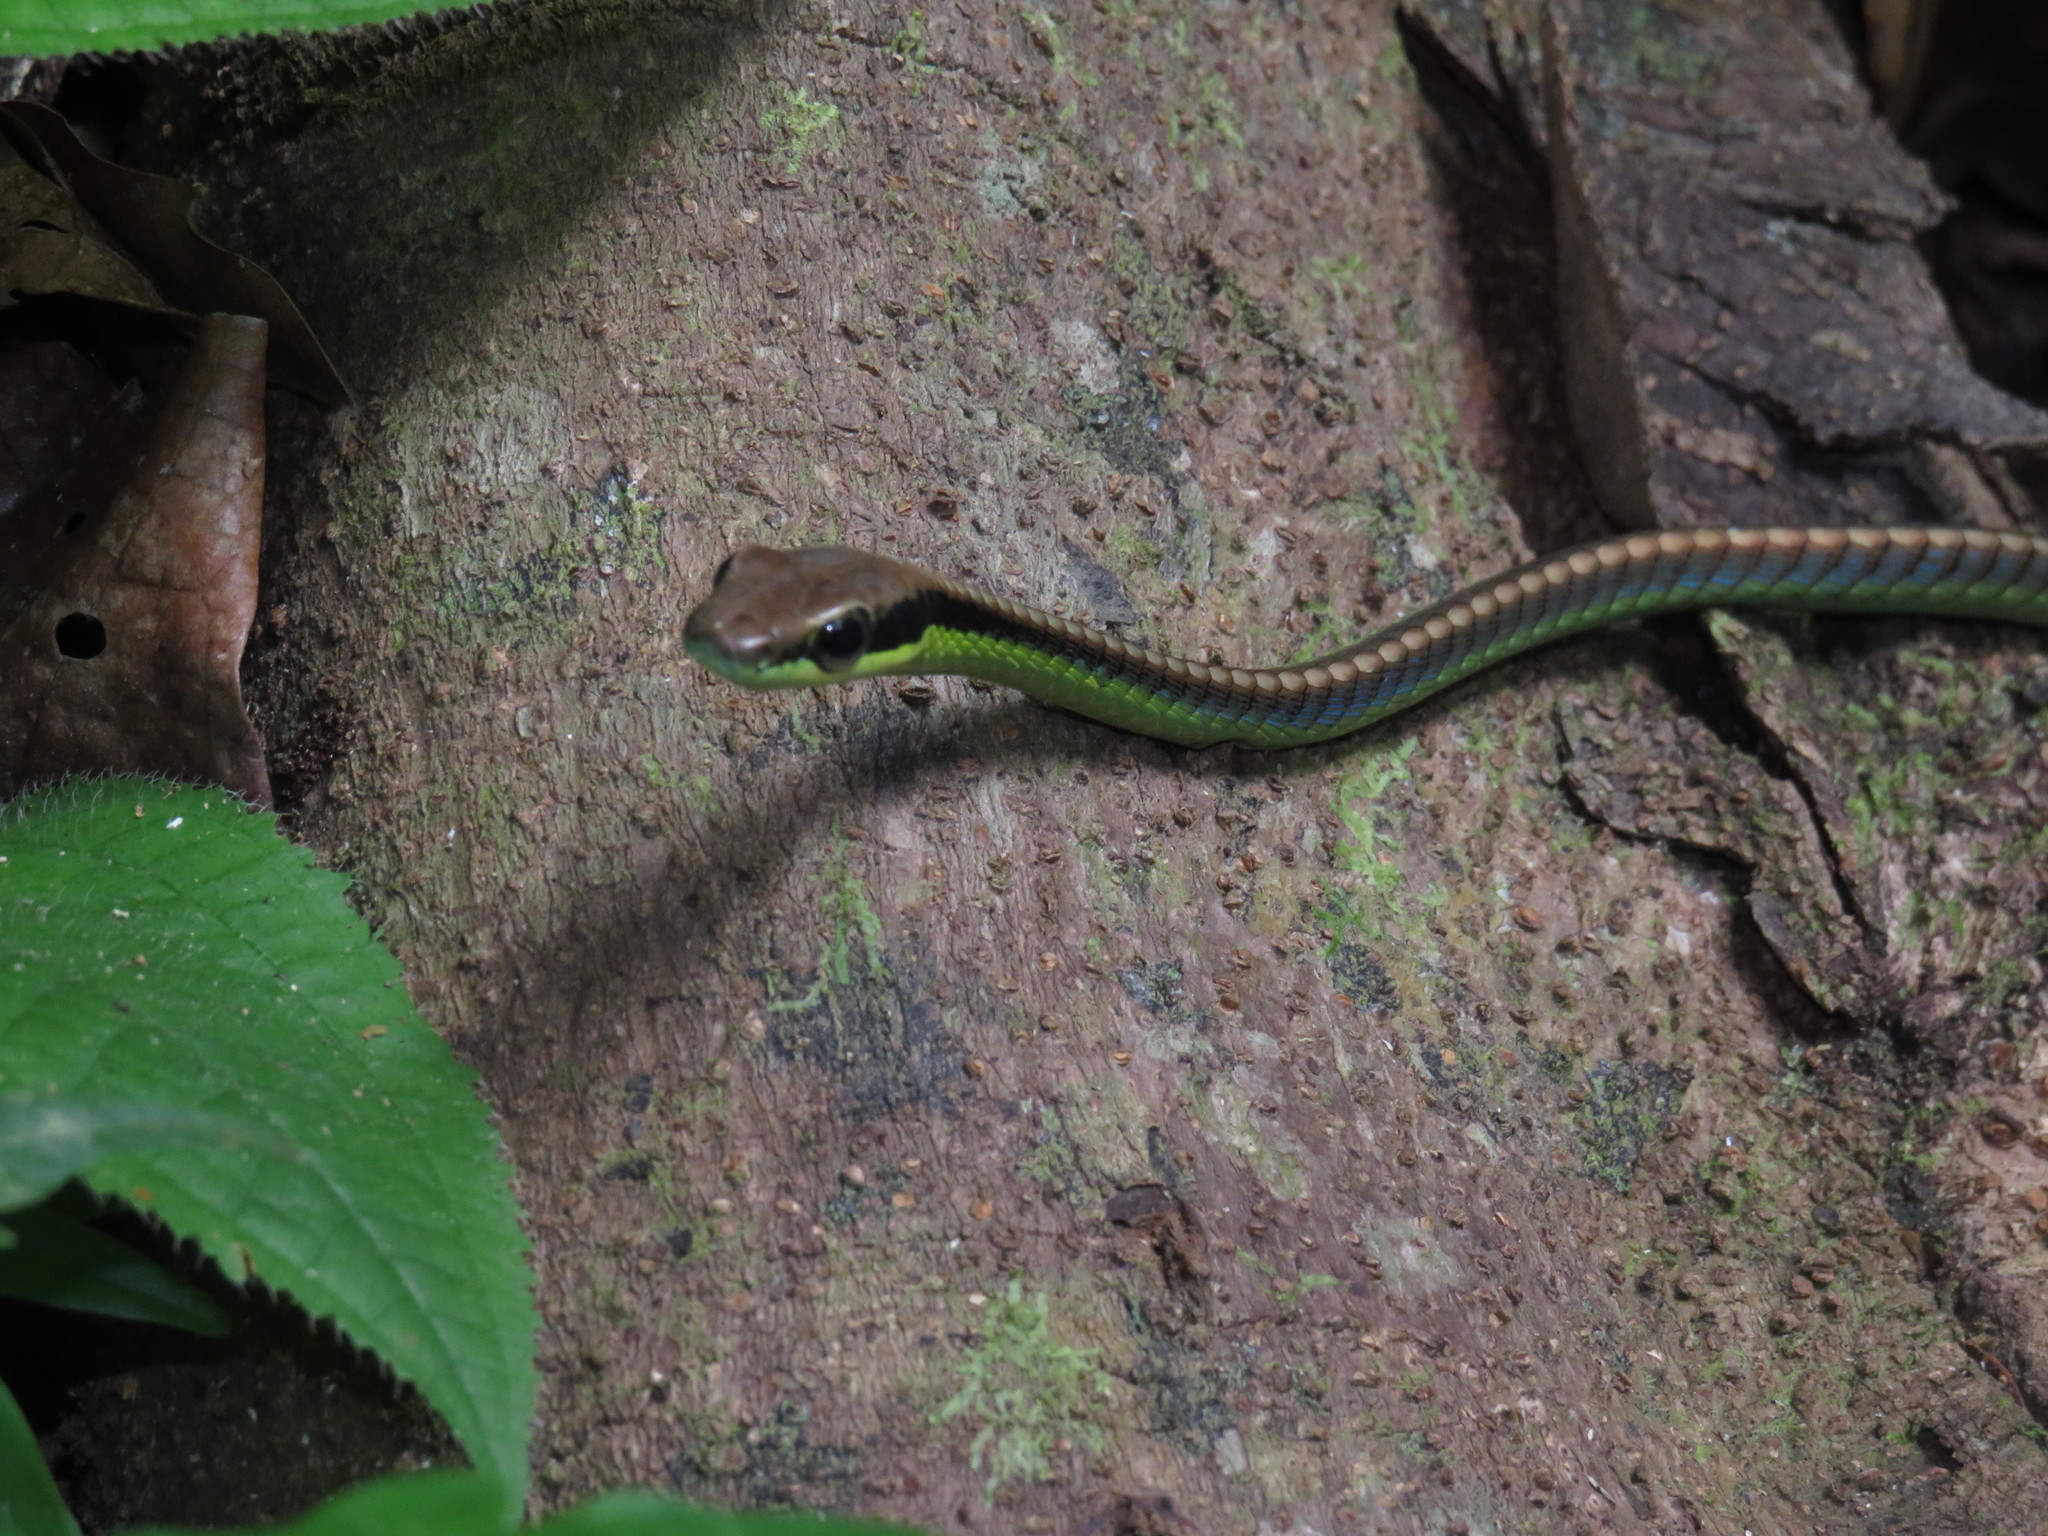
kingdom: Animalia
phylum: Chordata
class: Squamata
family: Colubridae
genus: Dendrelaphis
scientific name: Dendrelaphis cyanochloris
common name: Wall's bronzeback
